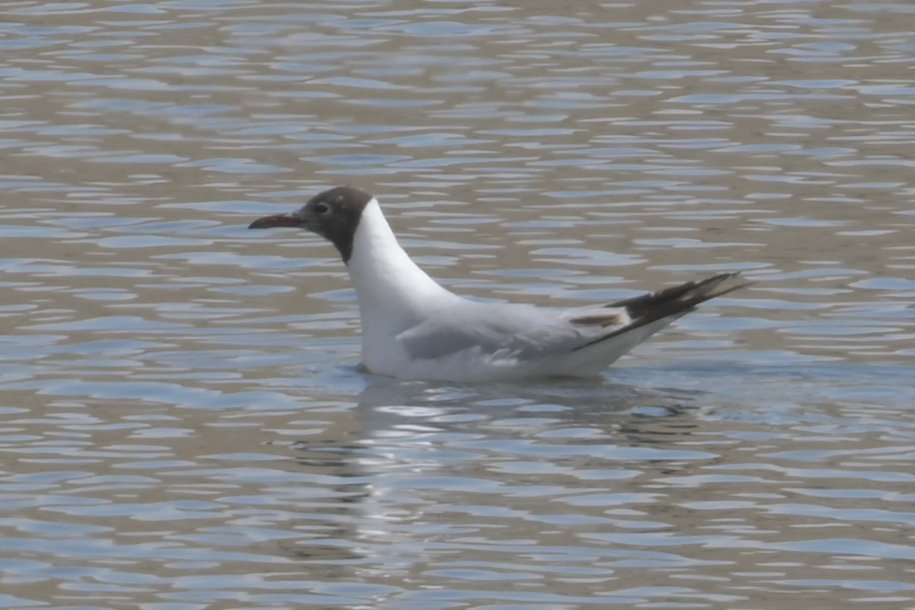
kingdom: Animalia
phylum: Chordata
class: Aves
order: Charadriiformes
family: Laridae
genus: Chroicocephalus
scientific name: Chroicocephalus ridibundus
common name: Black-headed gull
